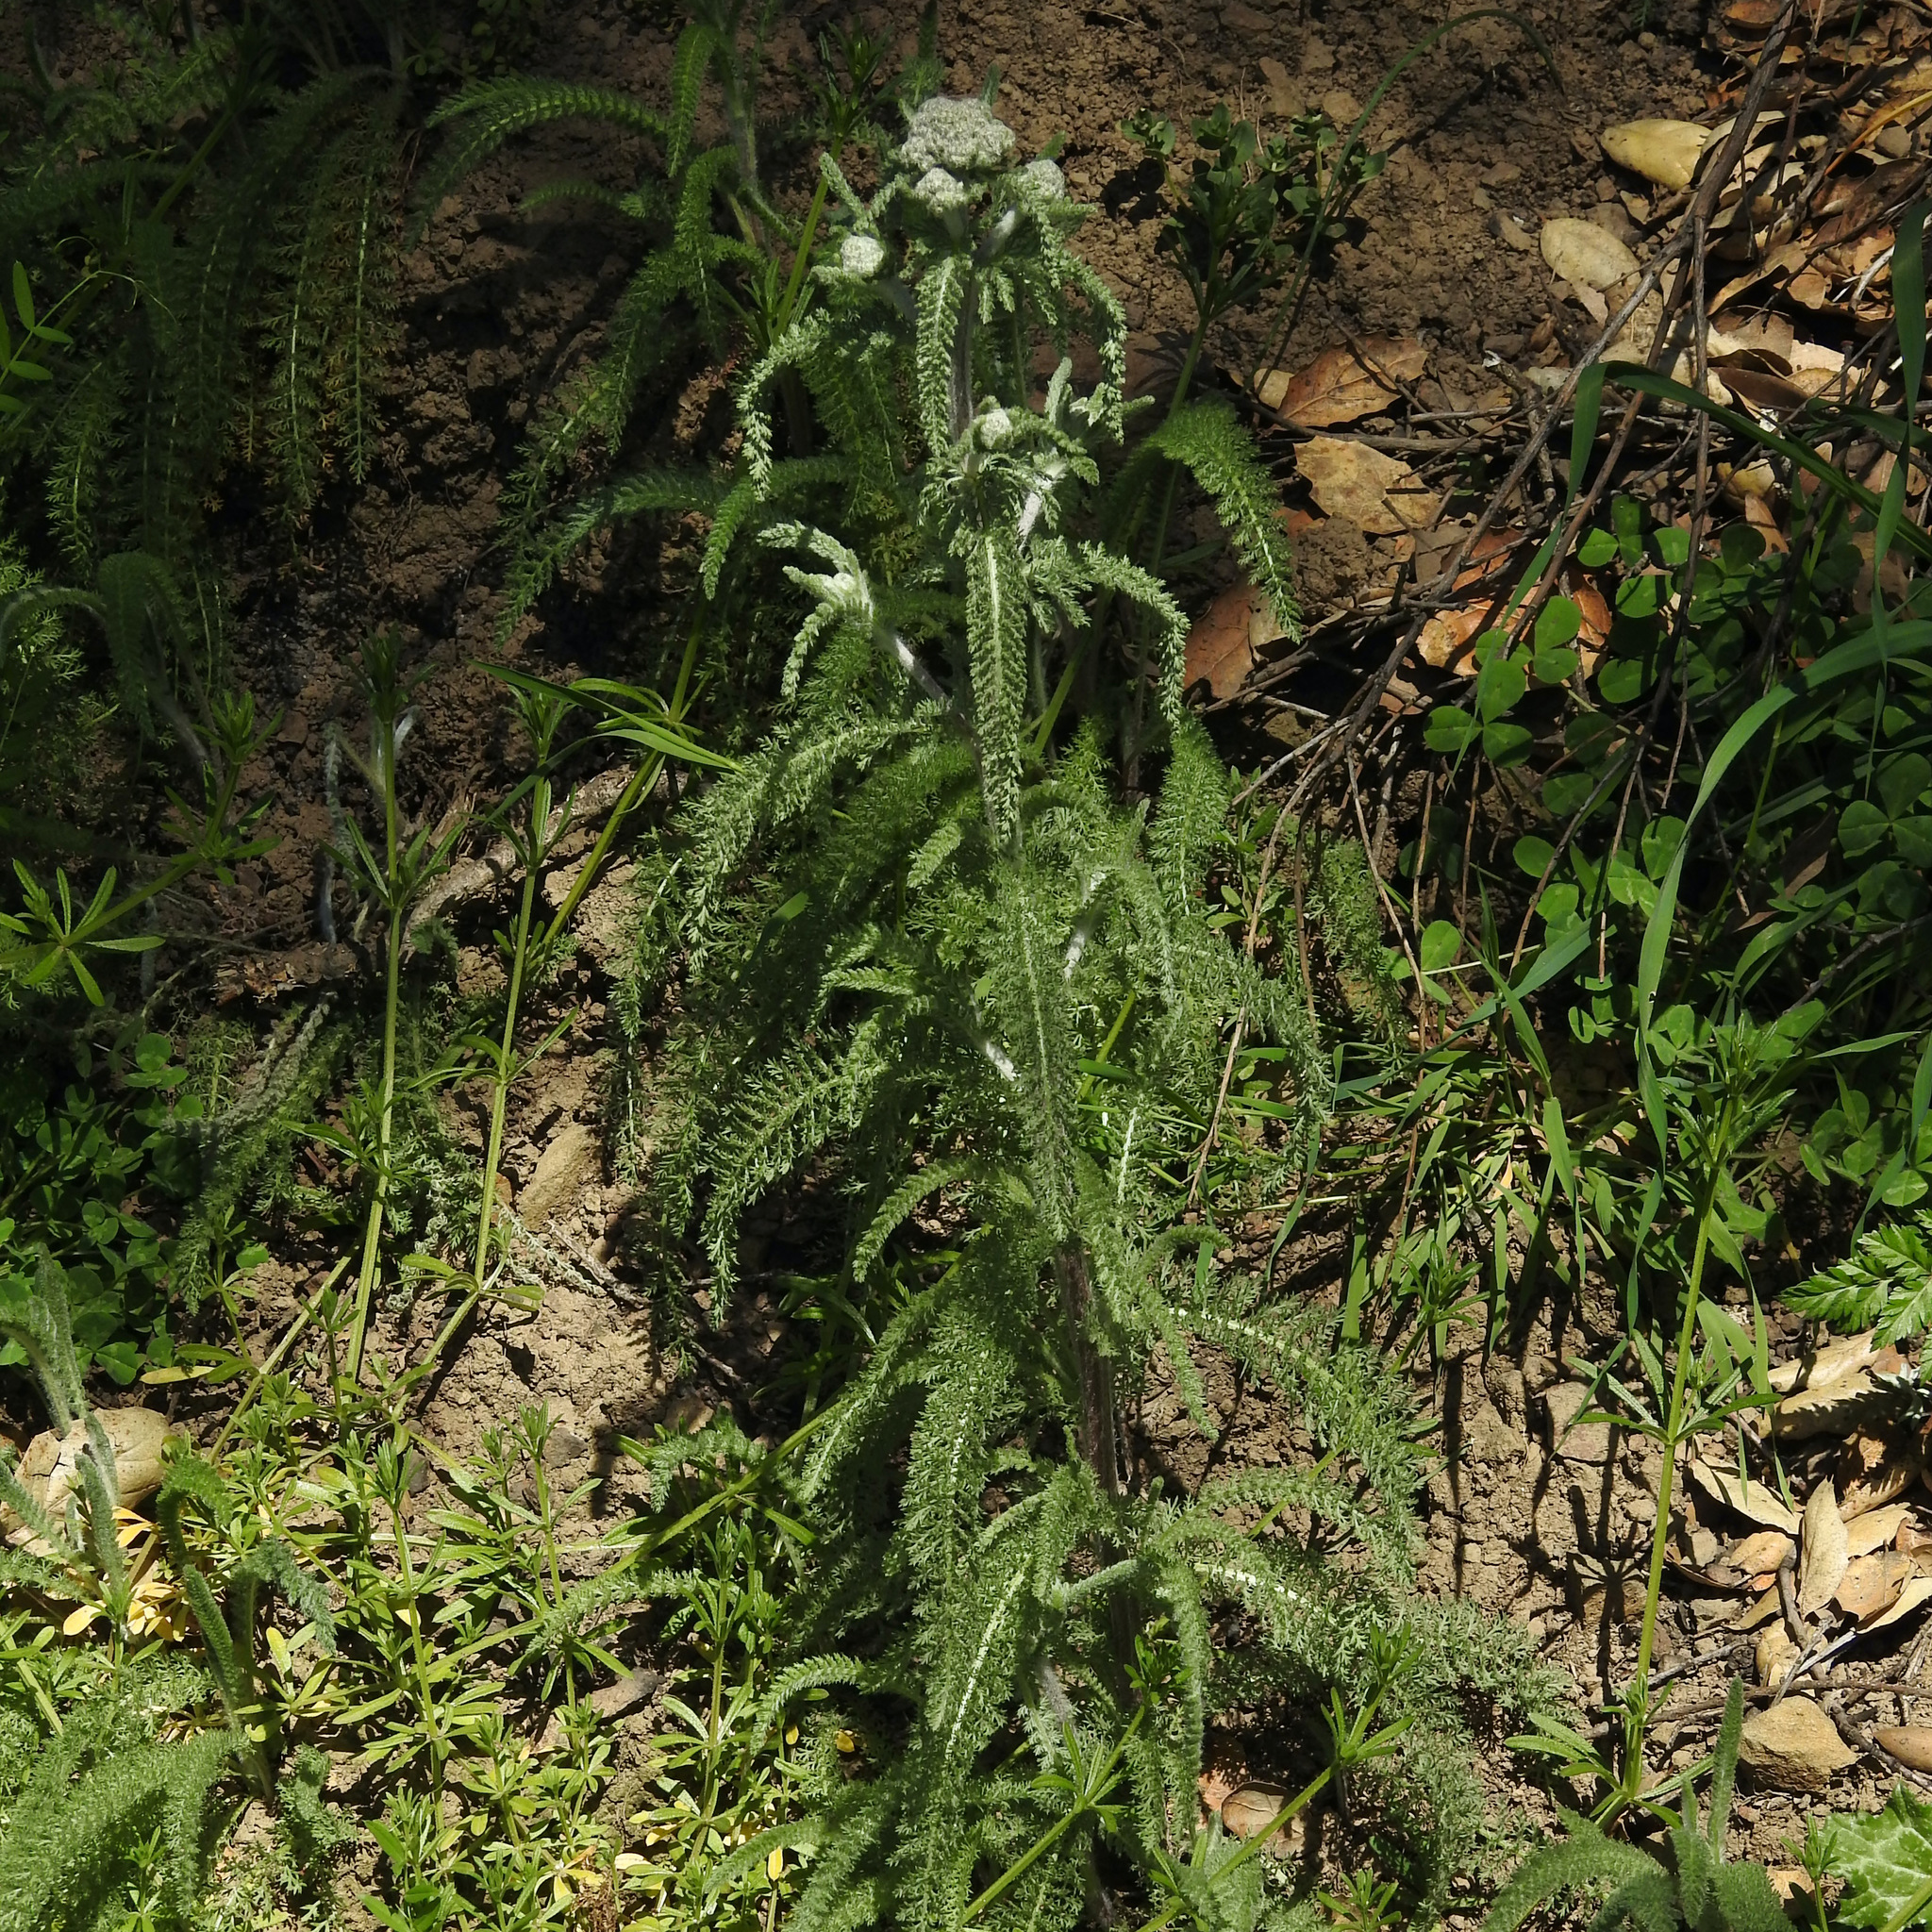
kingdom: Plantae
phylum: Tracheophyta
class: Magnoliopsida
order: Asterales
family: Asteraceae
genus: Achillea
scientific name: Achillea millefolium
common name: Yarrow
